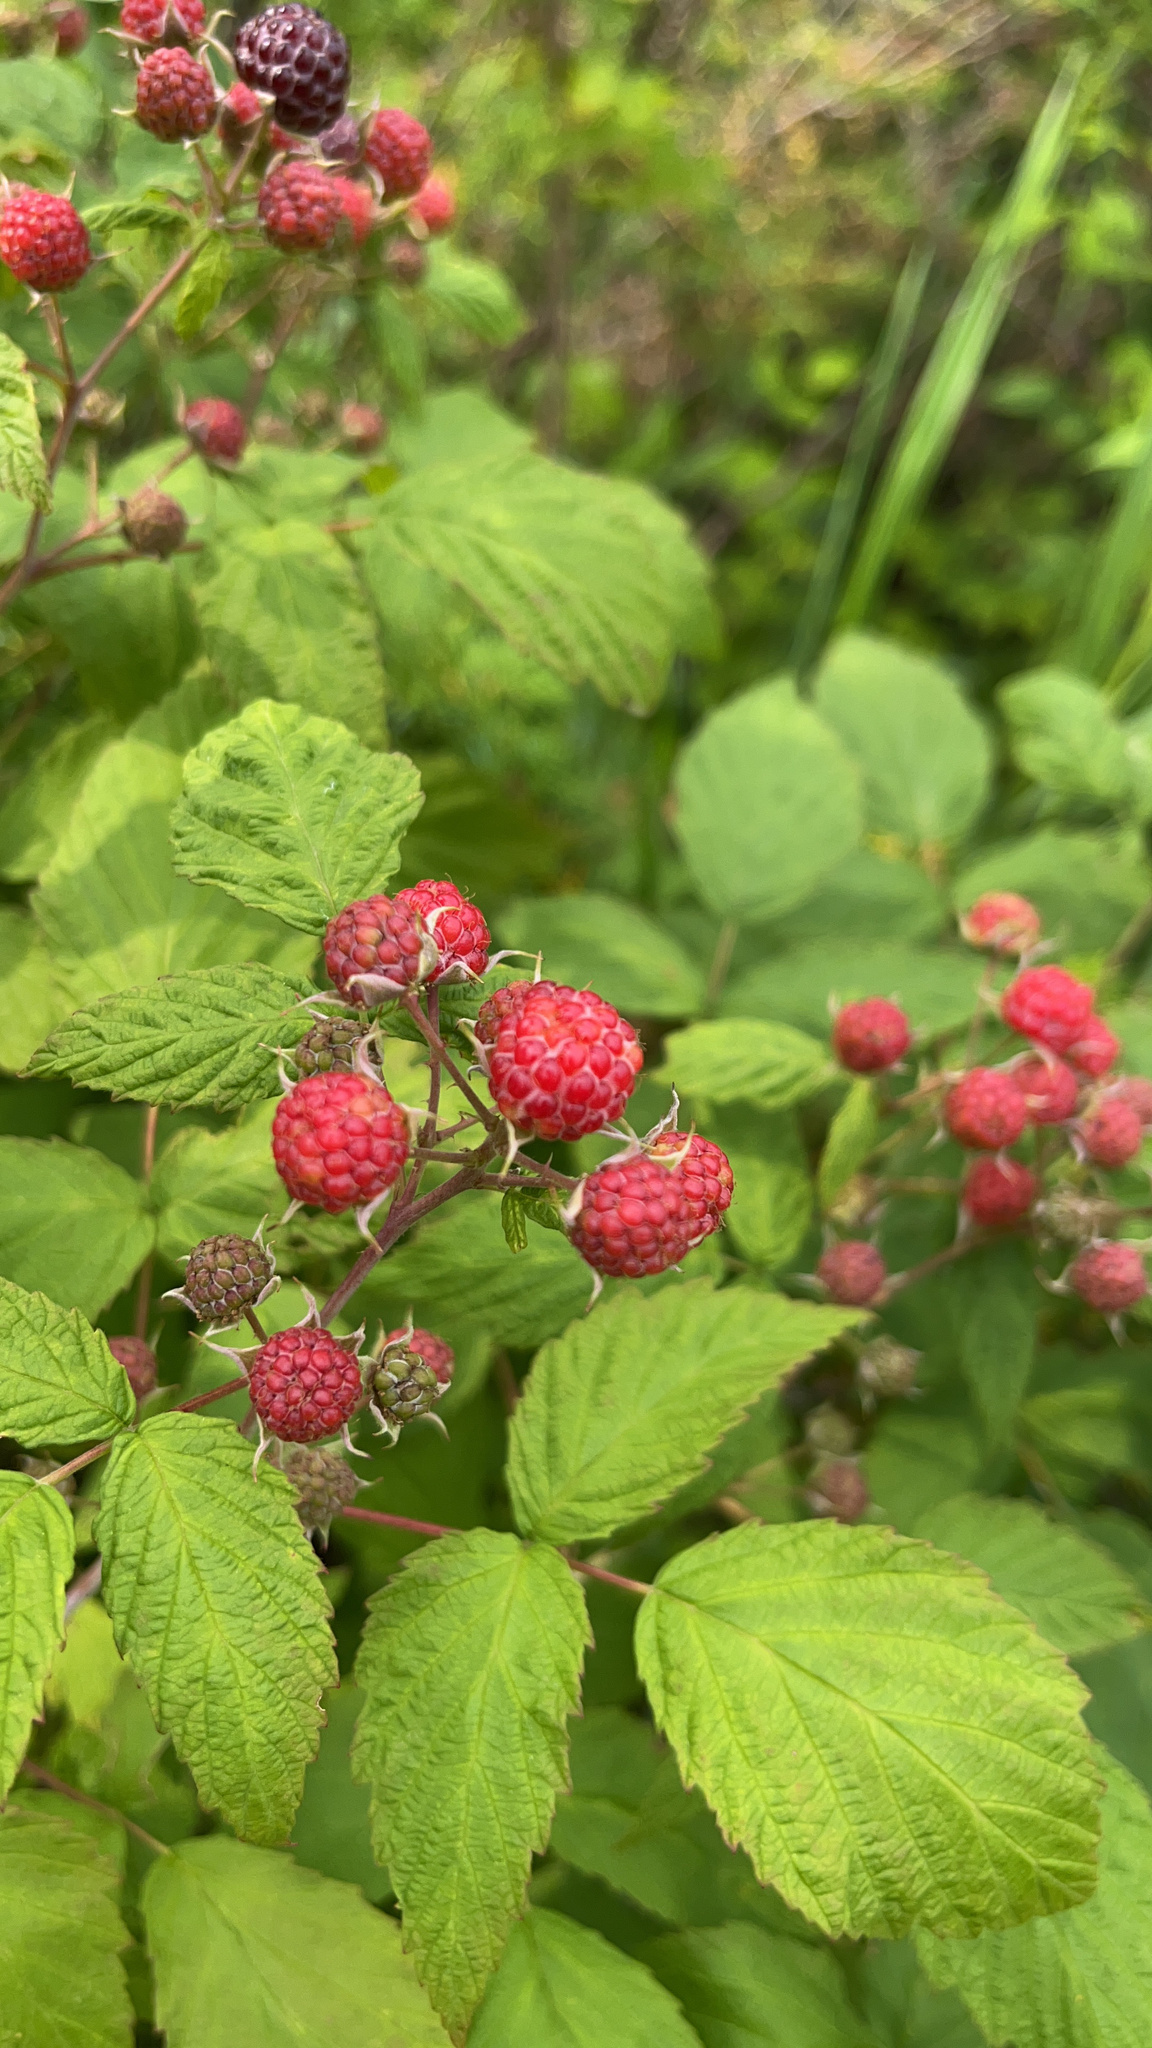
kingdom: Plantae
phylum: Tracheophyta
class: Magnoliopsida
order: Rosales
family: Rosaceae
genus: Rubus
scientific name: Rubus idaeus
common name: Raspberry
